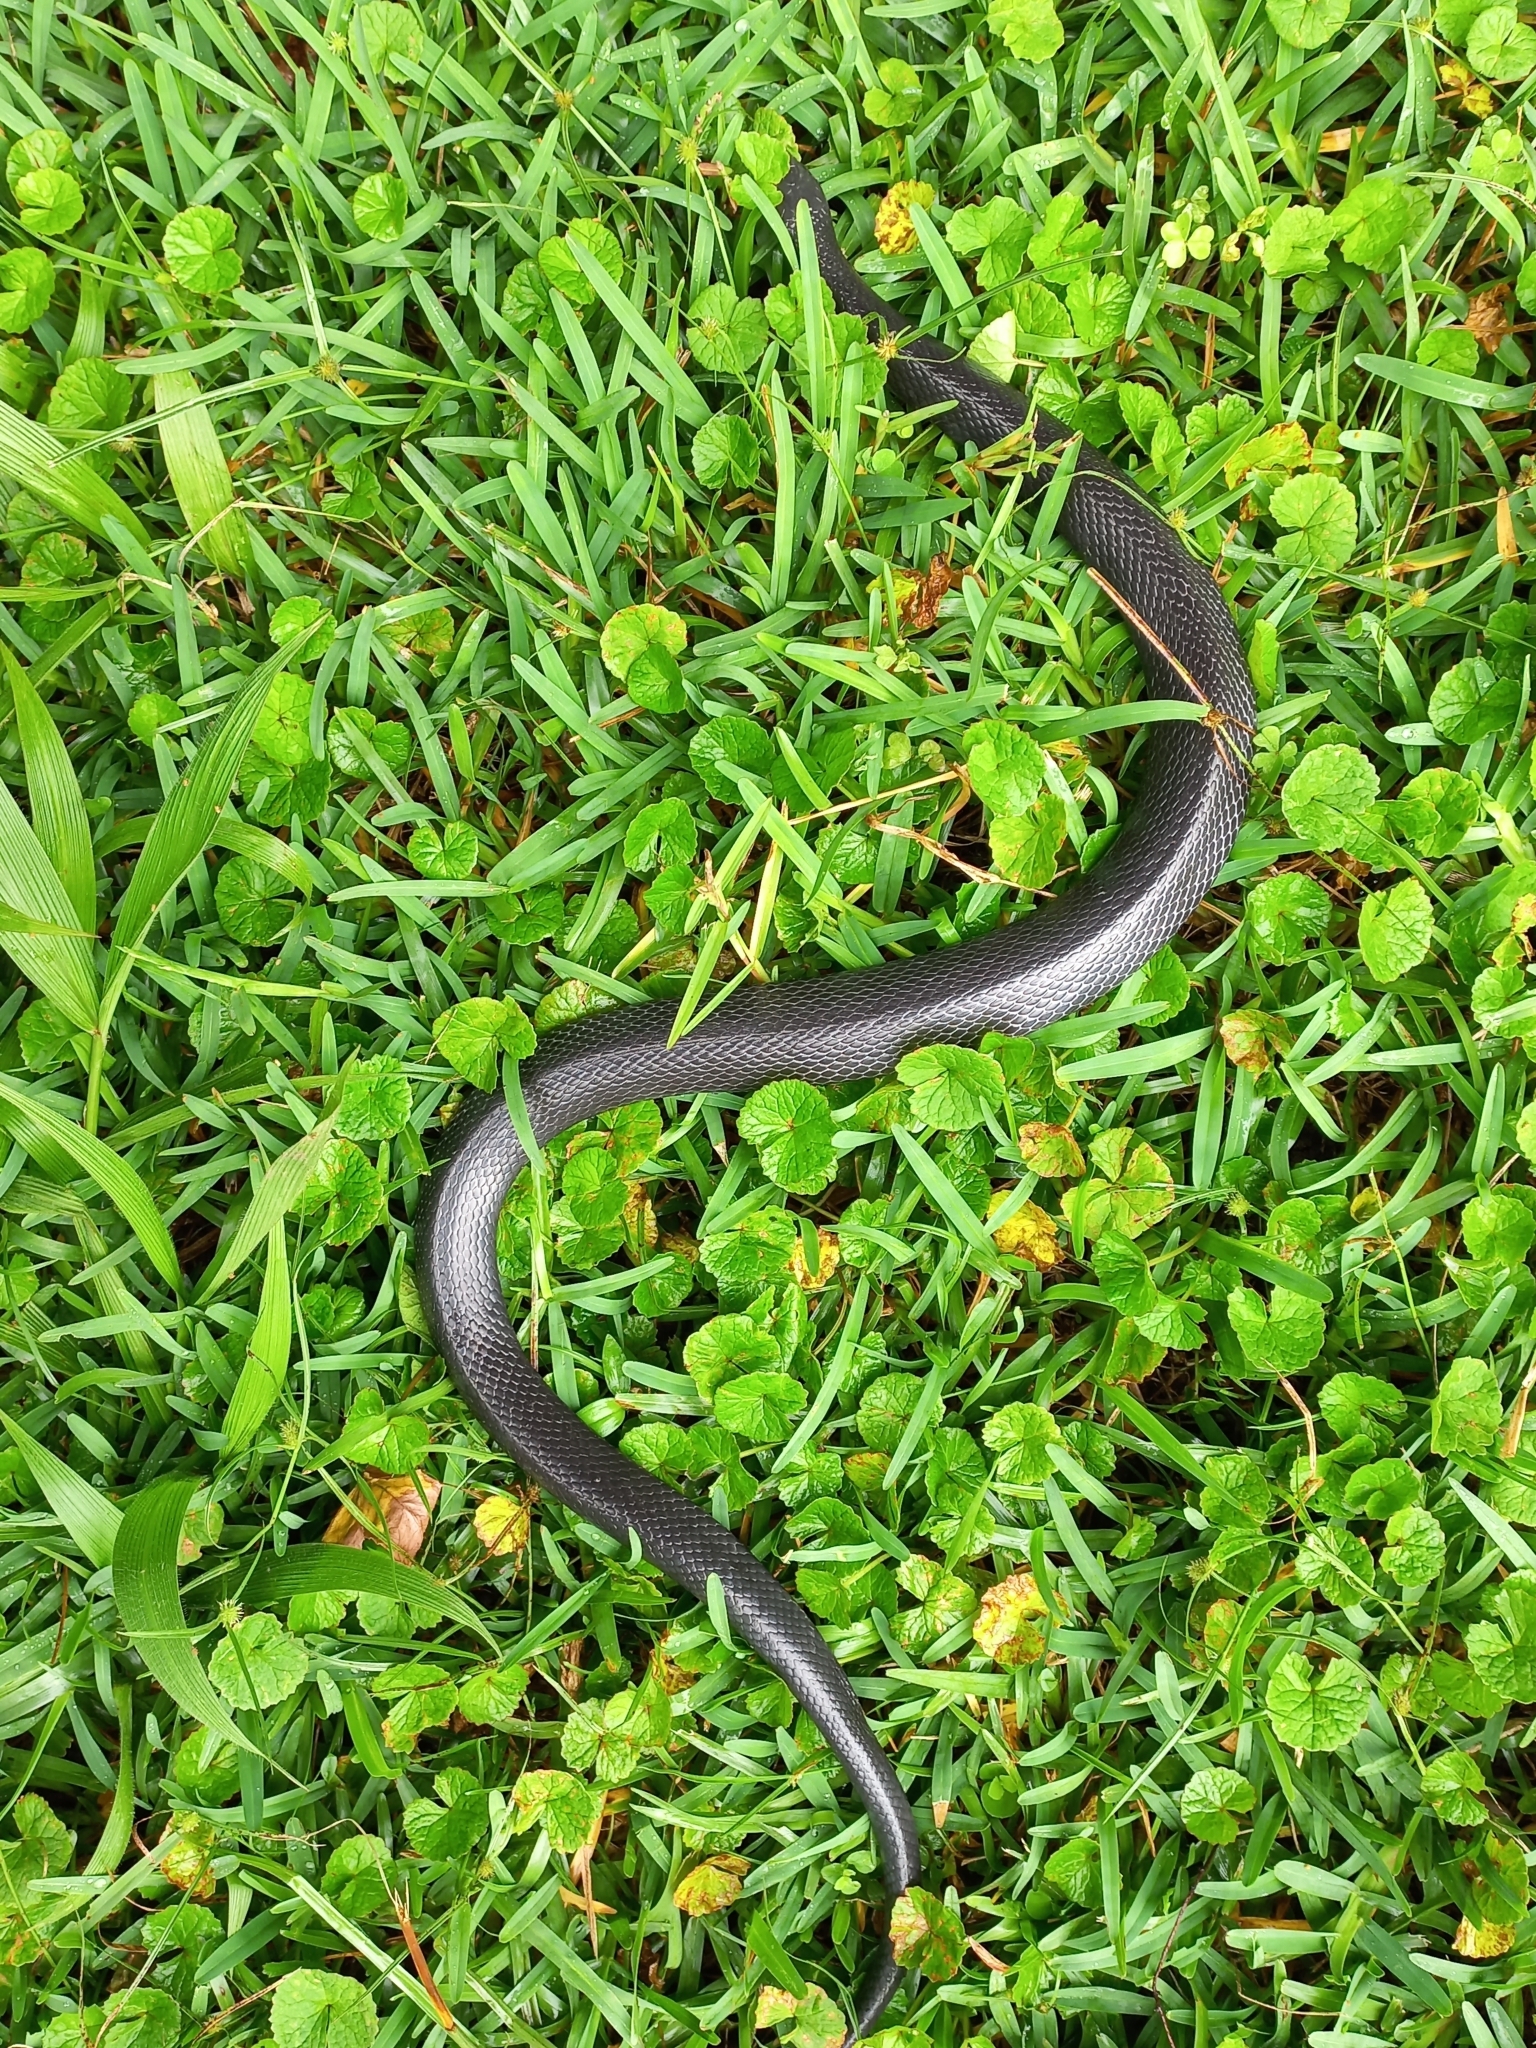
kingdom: Animalia
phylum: Chordata
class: Squamata
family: Atractaspididae
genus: Macrelaps
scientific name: Macrelaps microlepidotus
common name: Kwazulu-natal black snake
